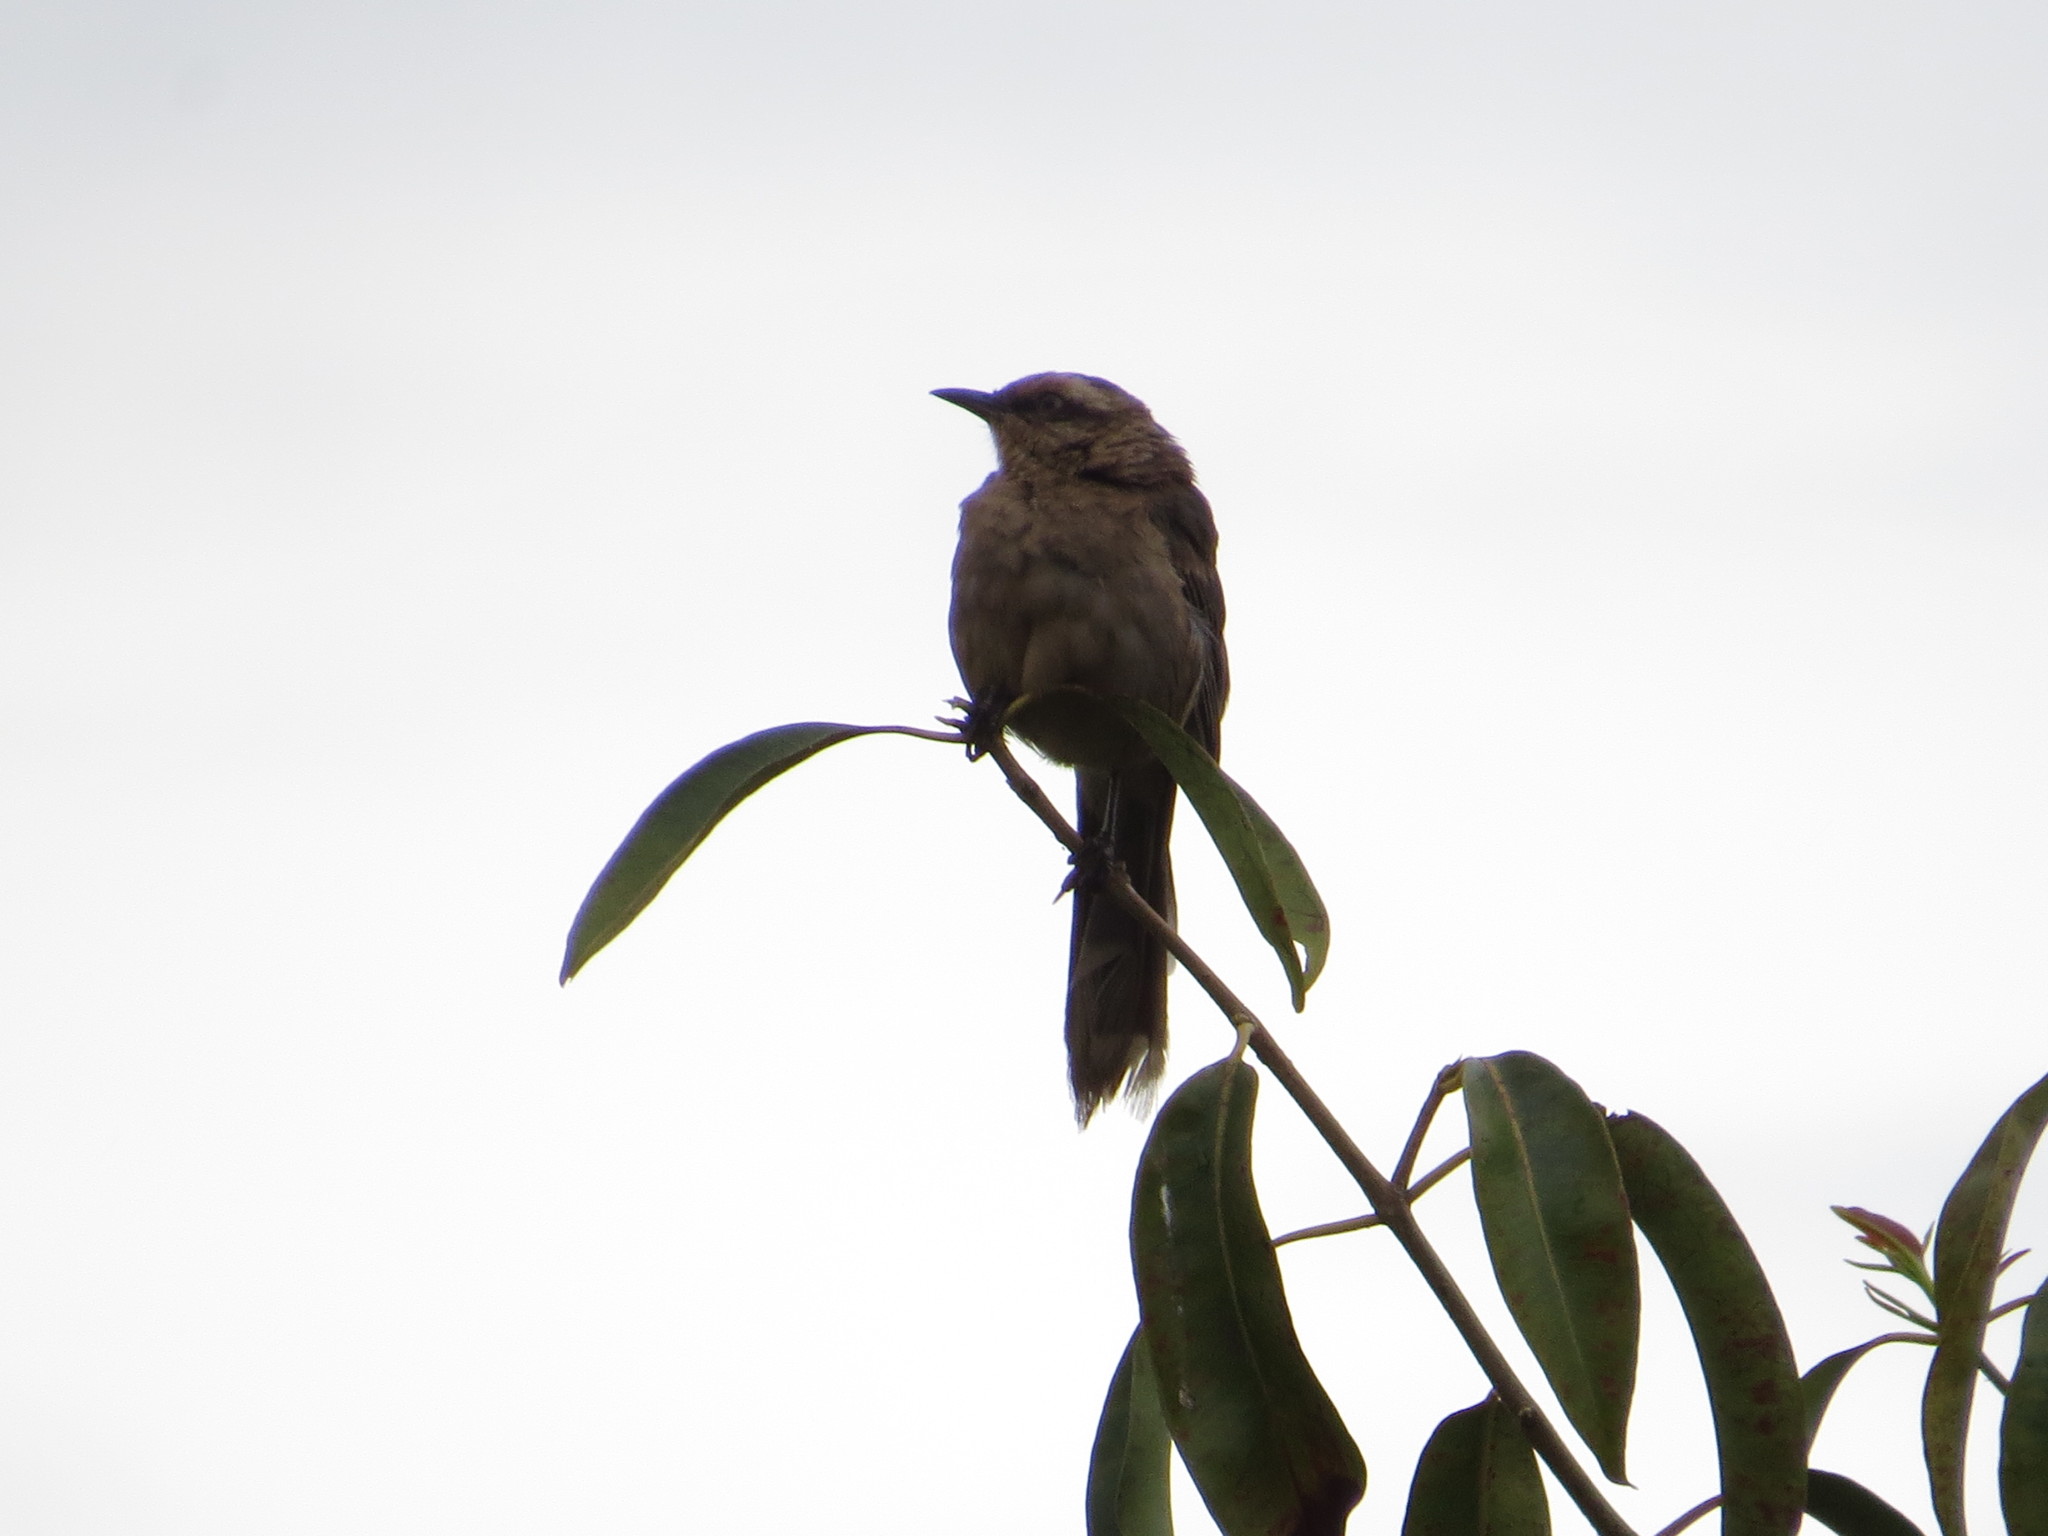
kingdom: Animalia
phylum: Chordata
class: Aves
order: Passeriformes
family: Mimidae
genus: Mimus
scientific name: Mimus saturninus
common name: Chalk-browed mockingbird
